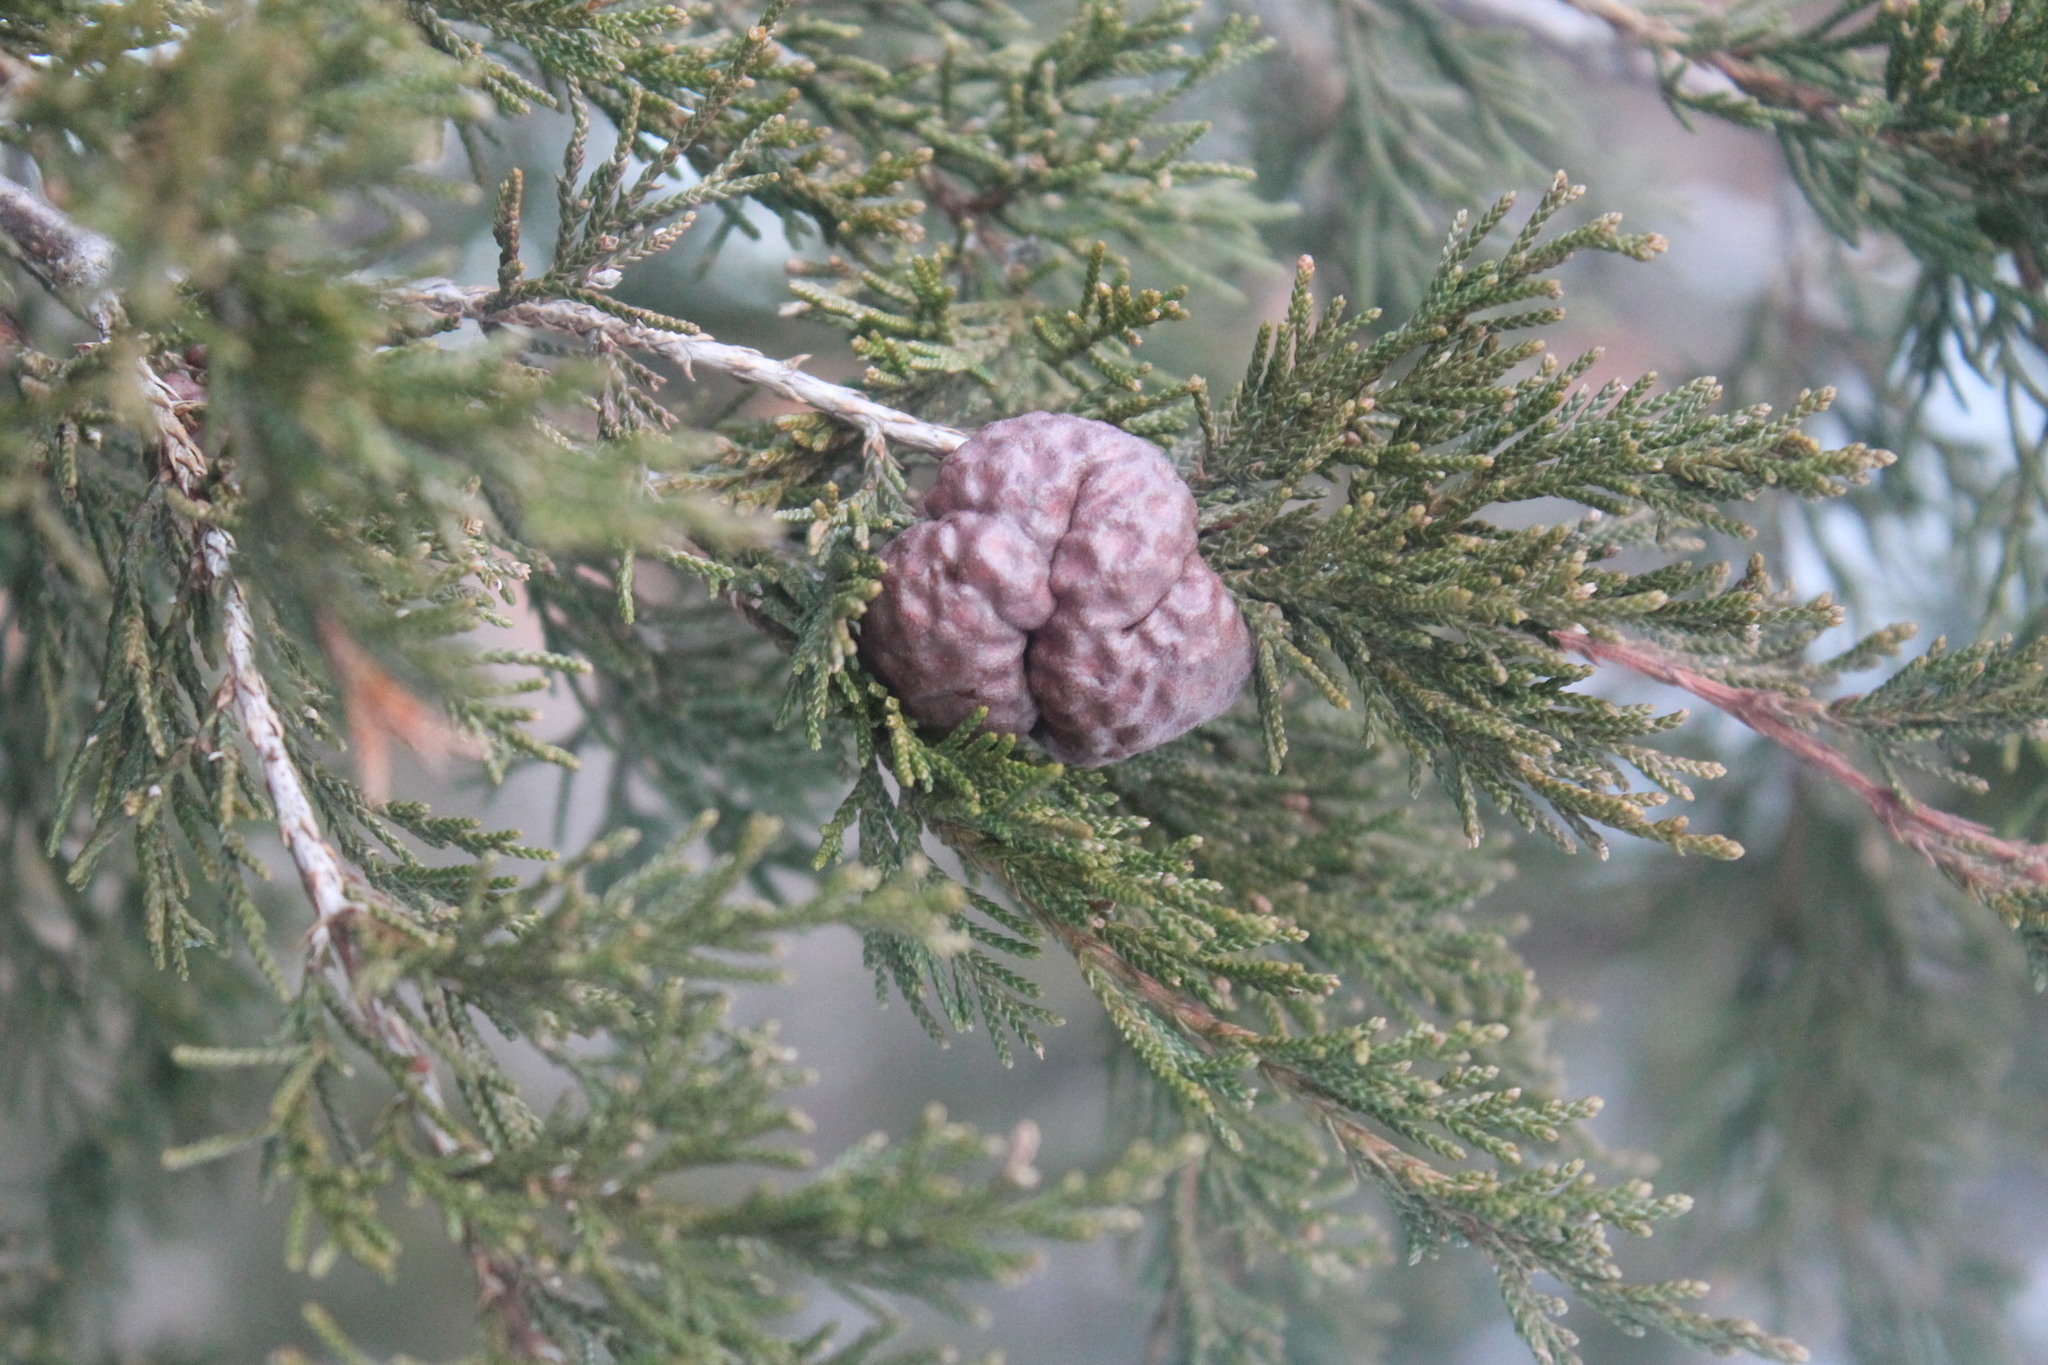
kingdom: Fungi
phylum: Basidiomycota
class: Pucciniomycetes
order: Pucciniales
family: Gymnosporangiaceae
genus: Gymnosporangium
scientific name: Gymnosporangium juniperi-virginianae
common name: Juniper-apple rust
